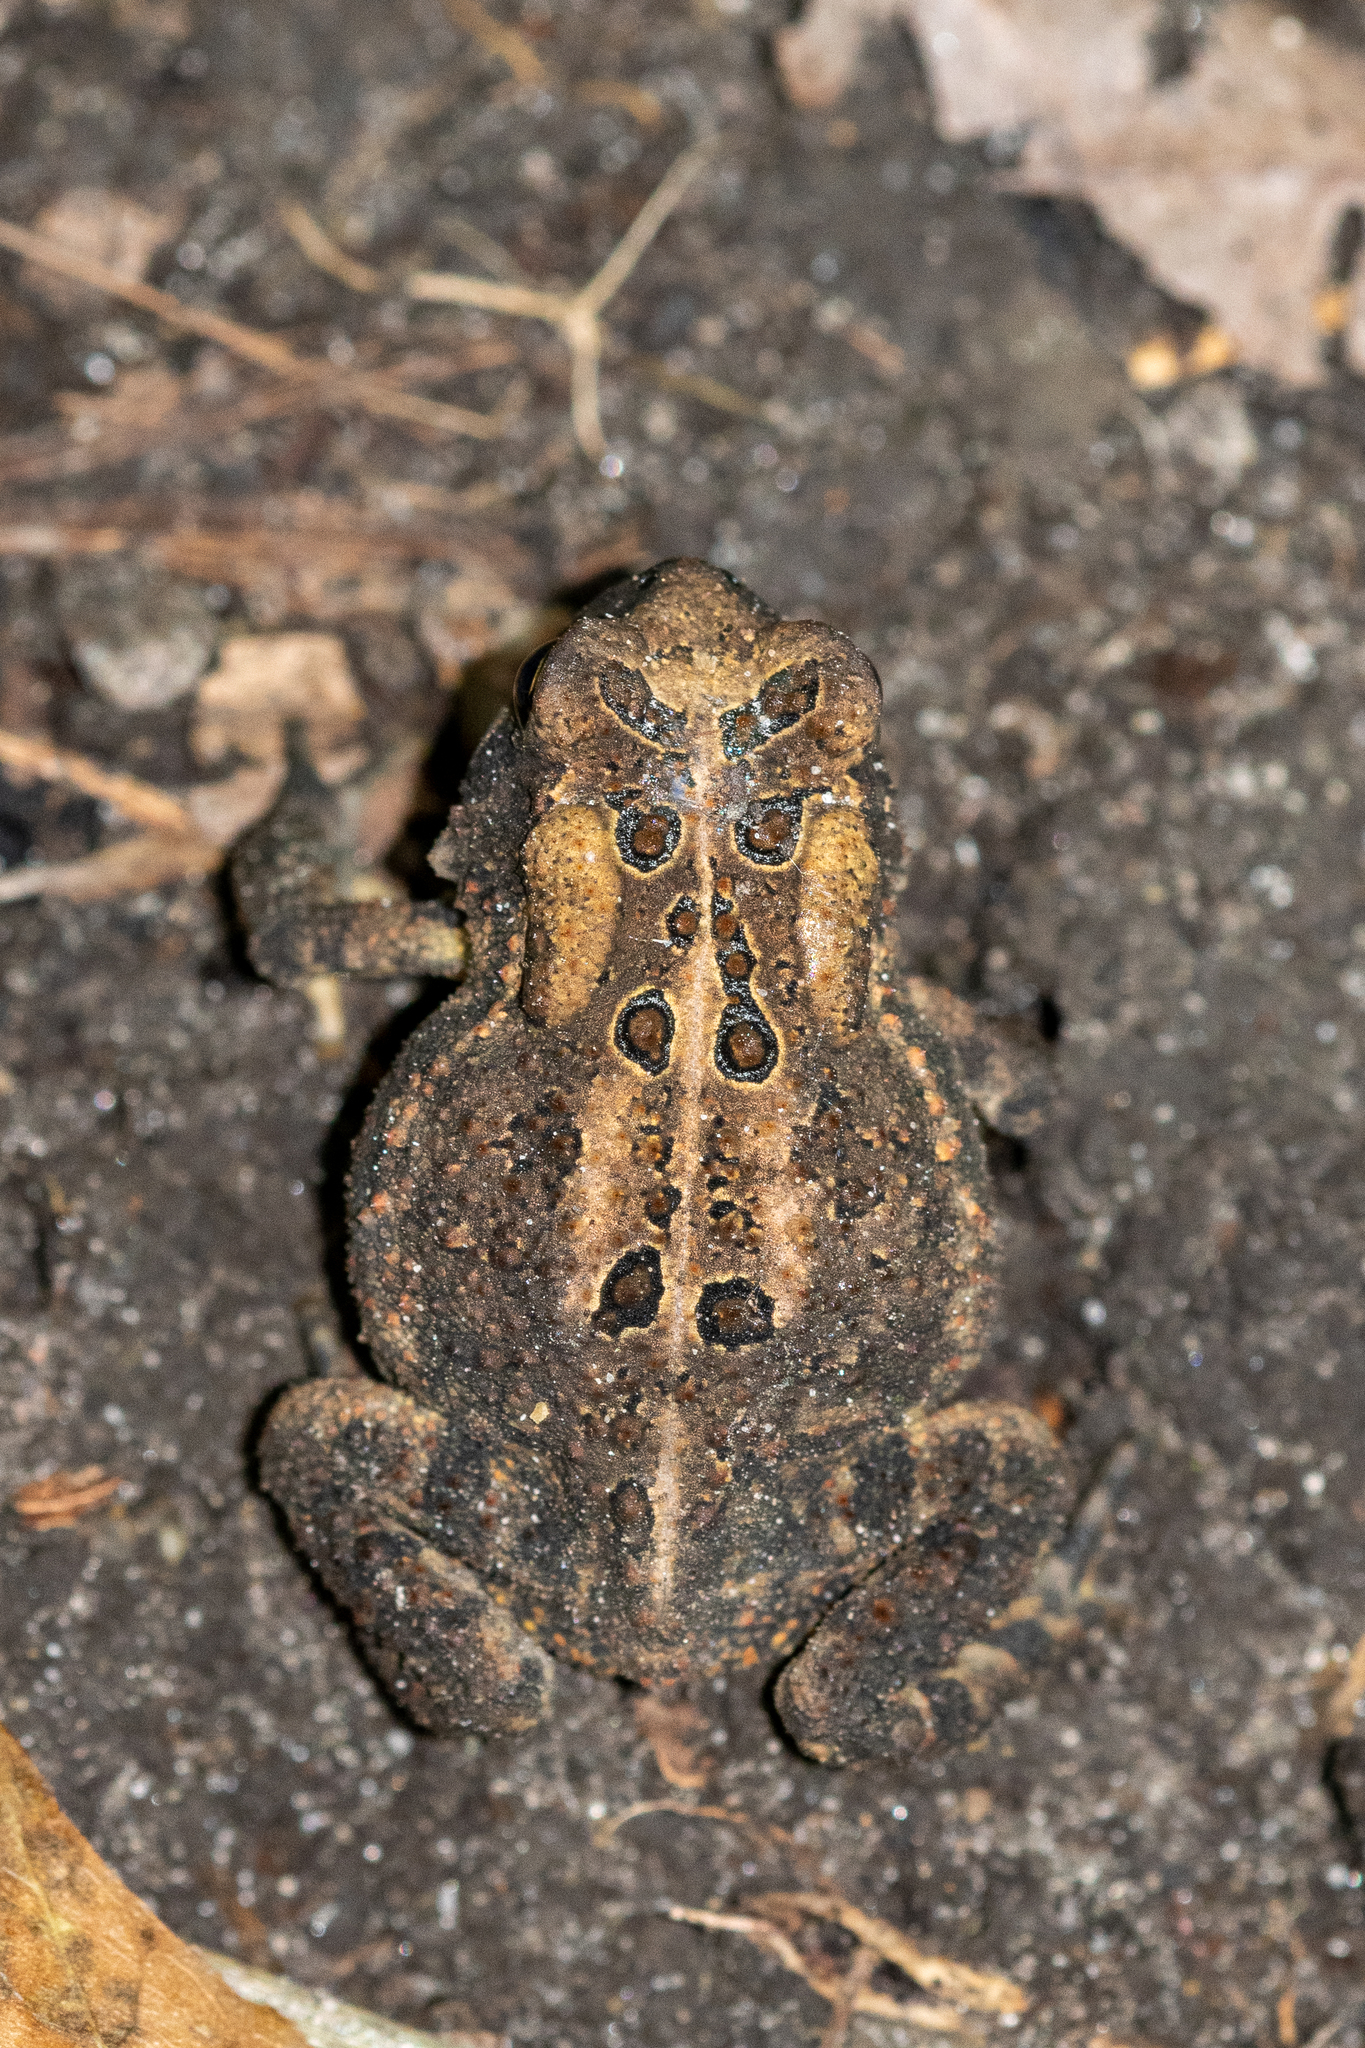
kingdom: Animalia
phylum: Chordata
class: Amphibia
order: Anura
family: Bufonidae
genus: Anaxyrus
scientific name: Anaxyrus americanus
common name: American toad
